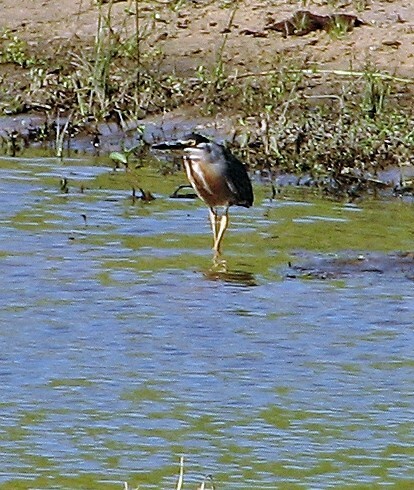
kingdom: Animalia
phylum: Chordata
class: Aves
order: Pelecaniformes
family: Ardeidae
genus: Butorides
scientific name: Butorides striata
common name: Striated heron
